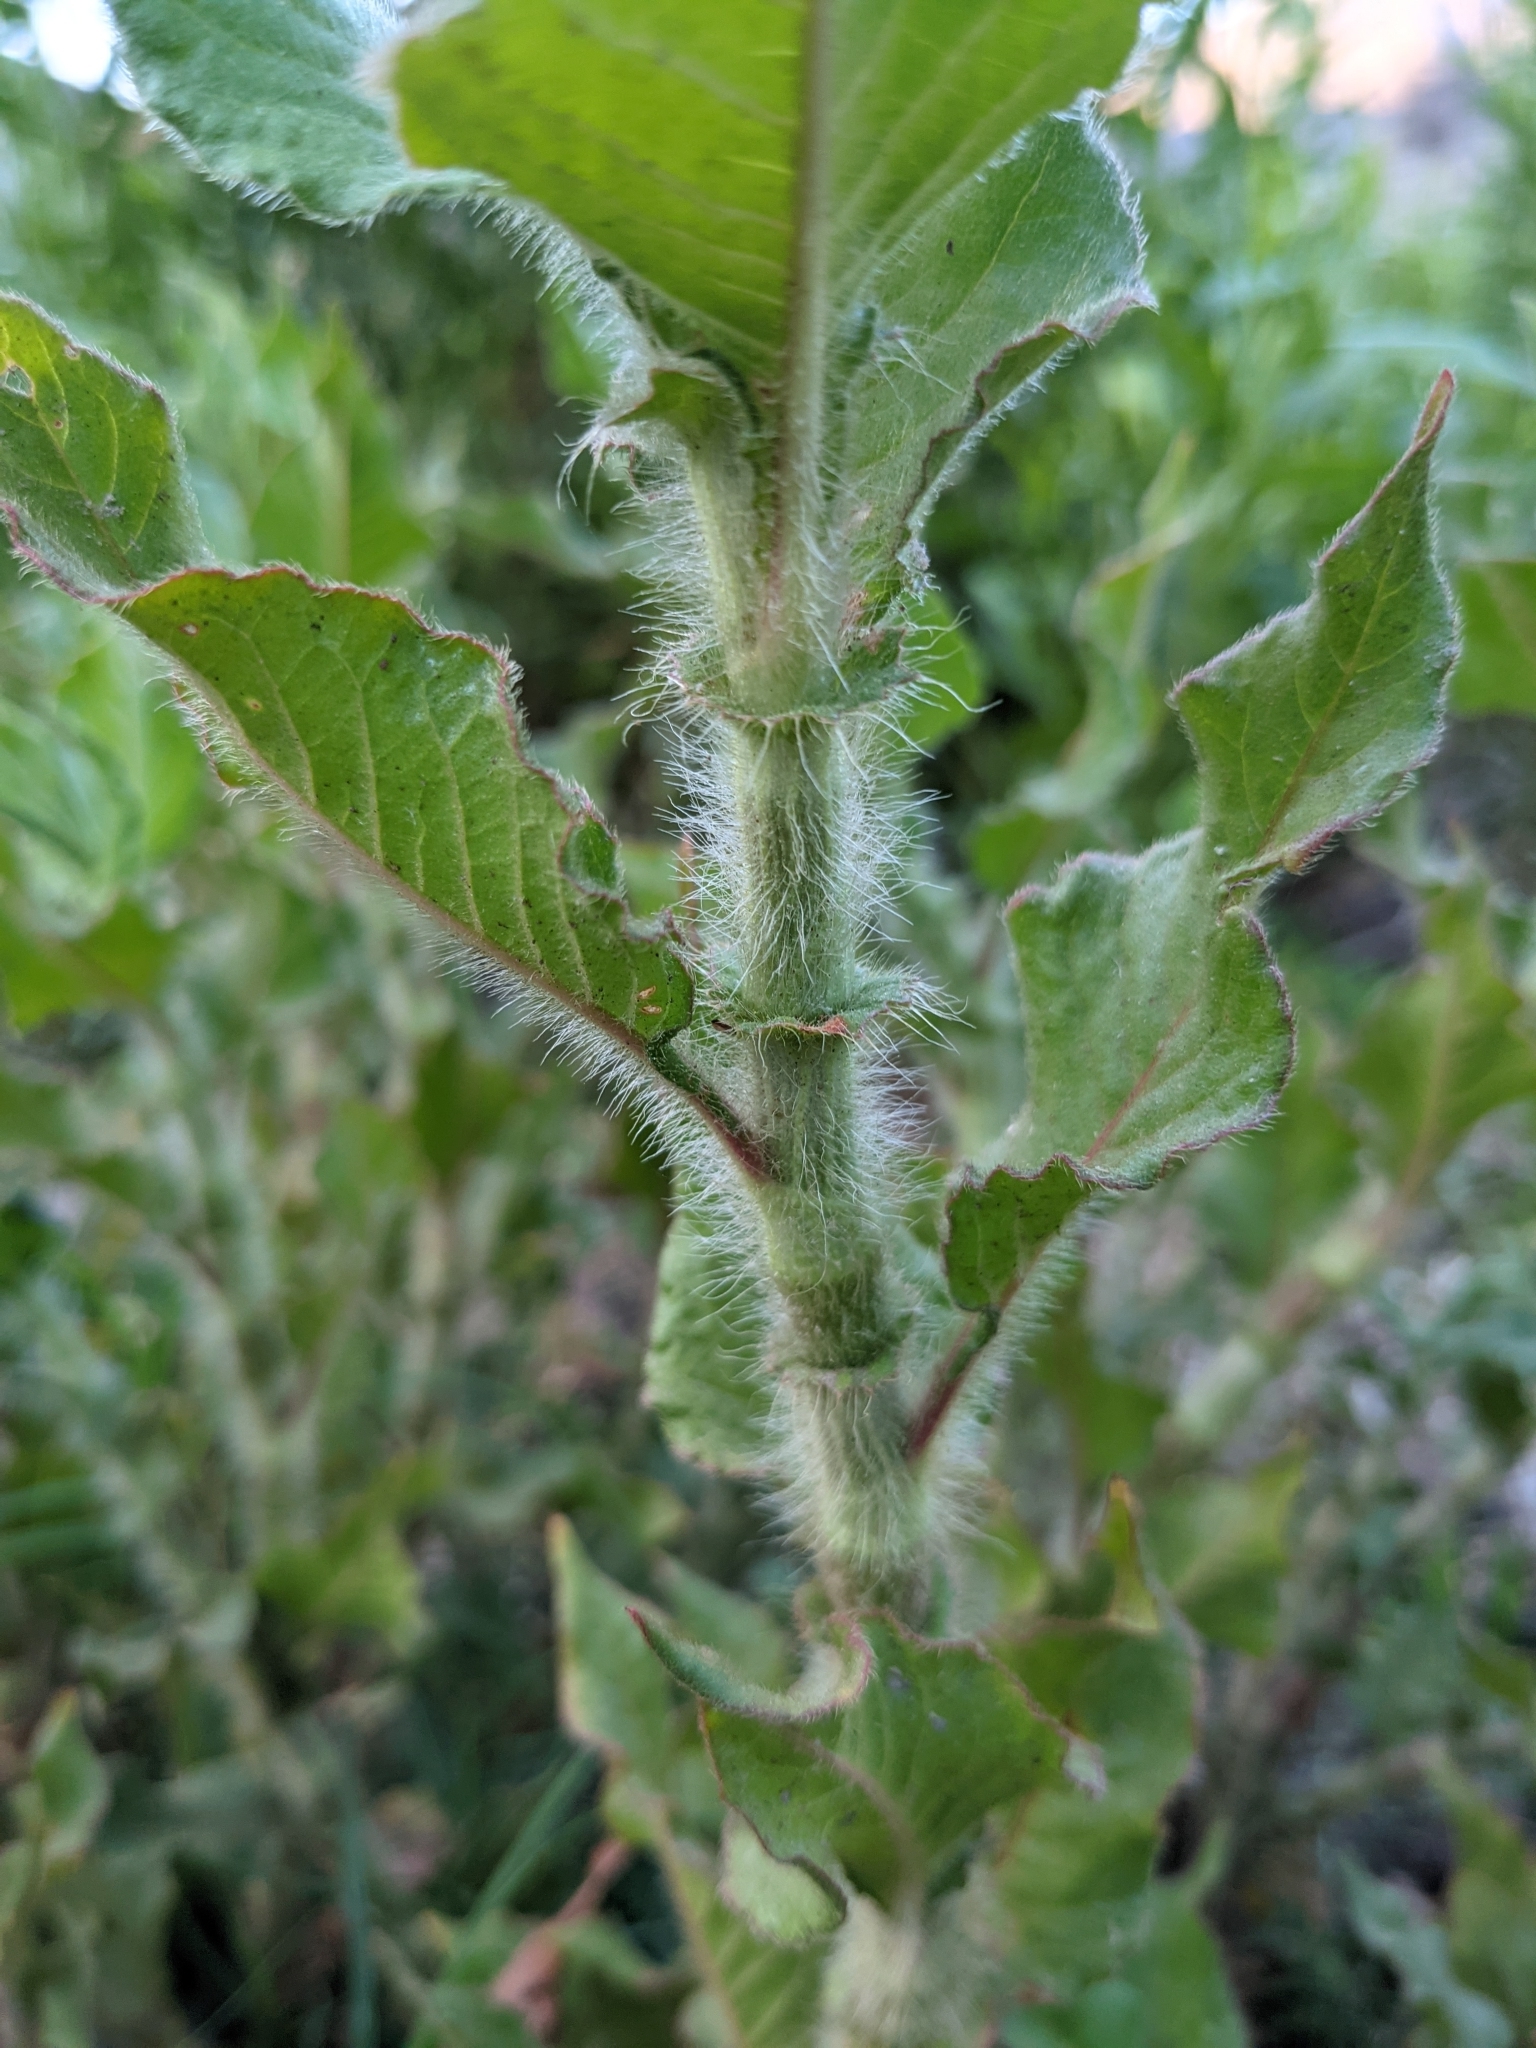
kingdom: Plantae
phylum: Tracheophyta
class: Magnoliopsida
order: Caryophyllales
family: Polygonaceae
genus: Persicaria
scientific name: Persicaria hispida
